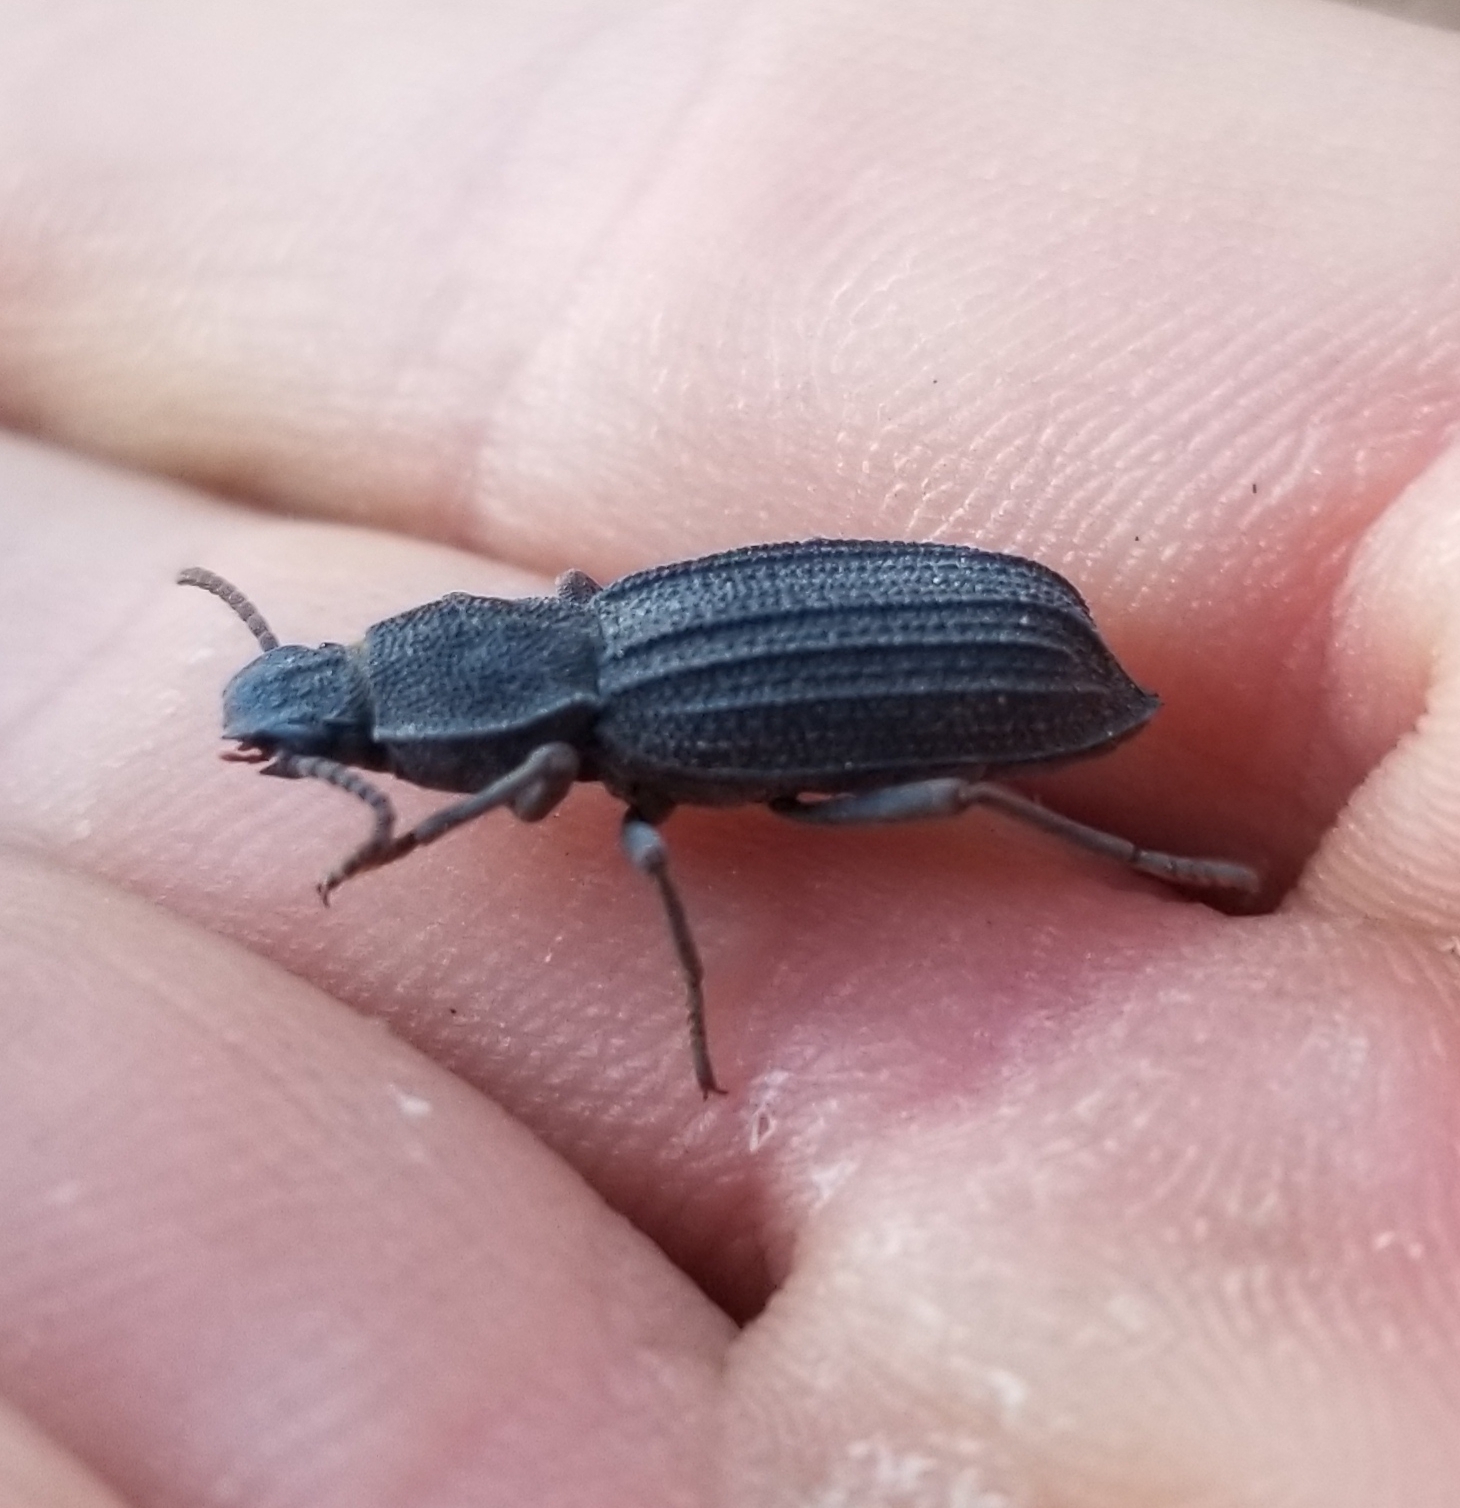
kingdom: Animalia
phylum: Arthropoda
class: Insecta
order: Coleoptera
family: Tenebrionidae
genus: Nyctoporis
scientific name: Nyctoporis carinata
